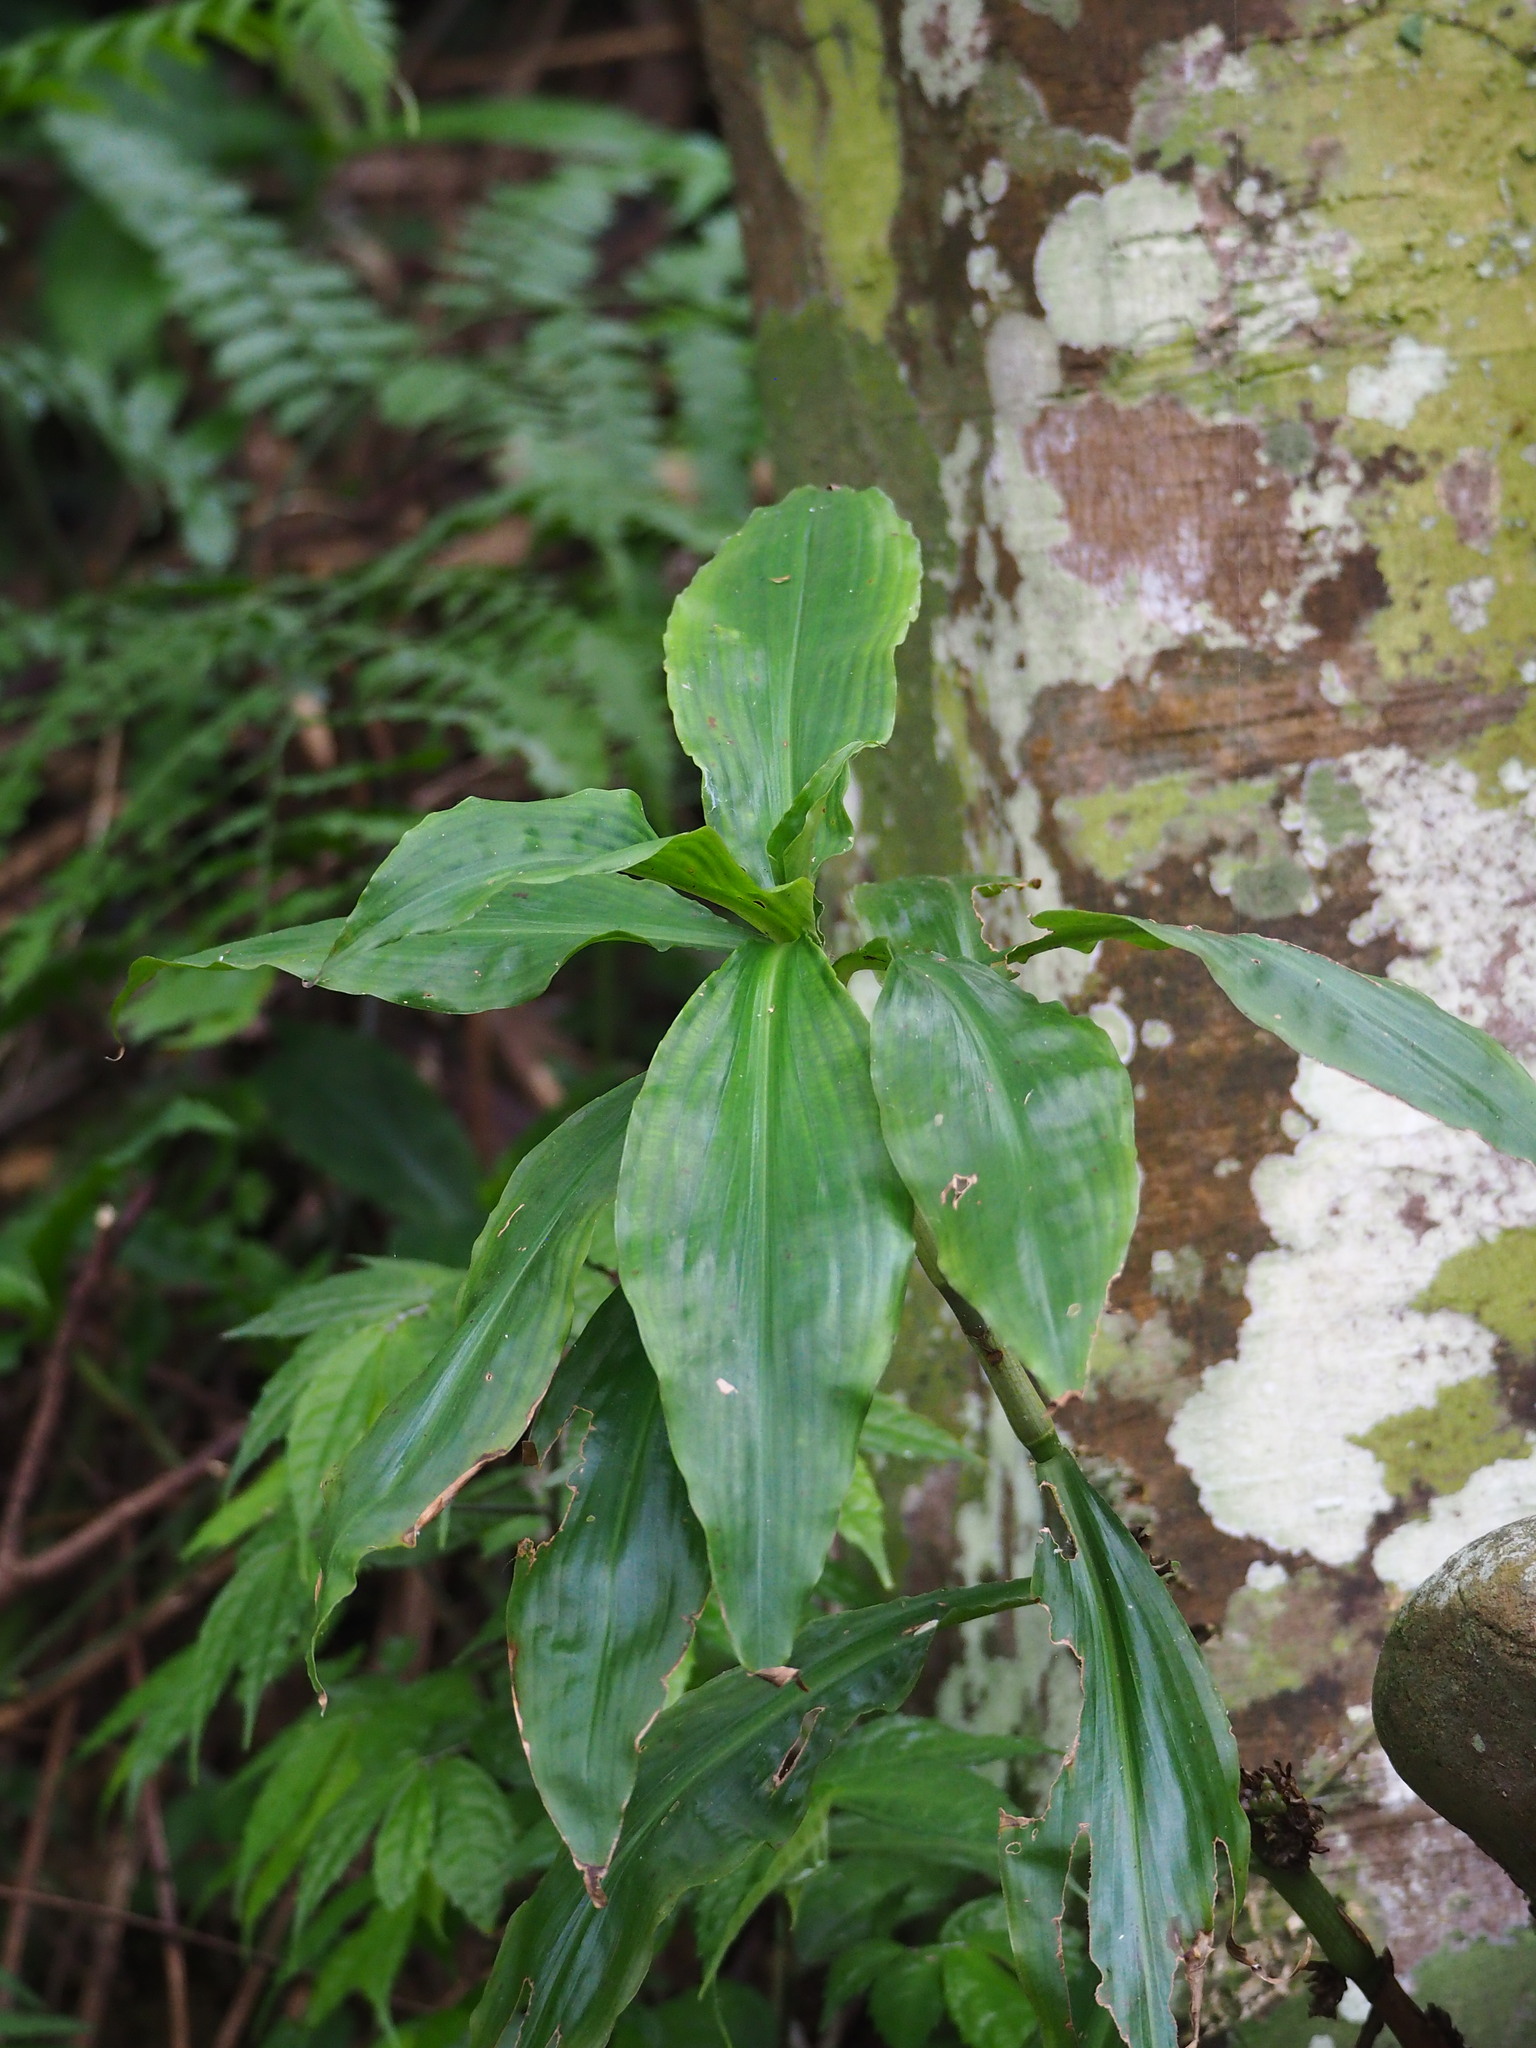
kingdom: Plantae
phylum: Tracheophyta
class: Liliopsida
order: Commelinales
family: Commelinaceae
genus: Amischotolype
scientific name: Amischotolype glabrata
